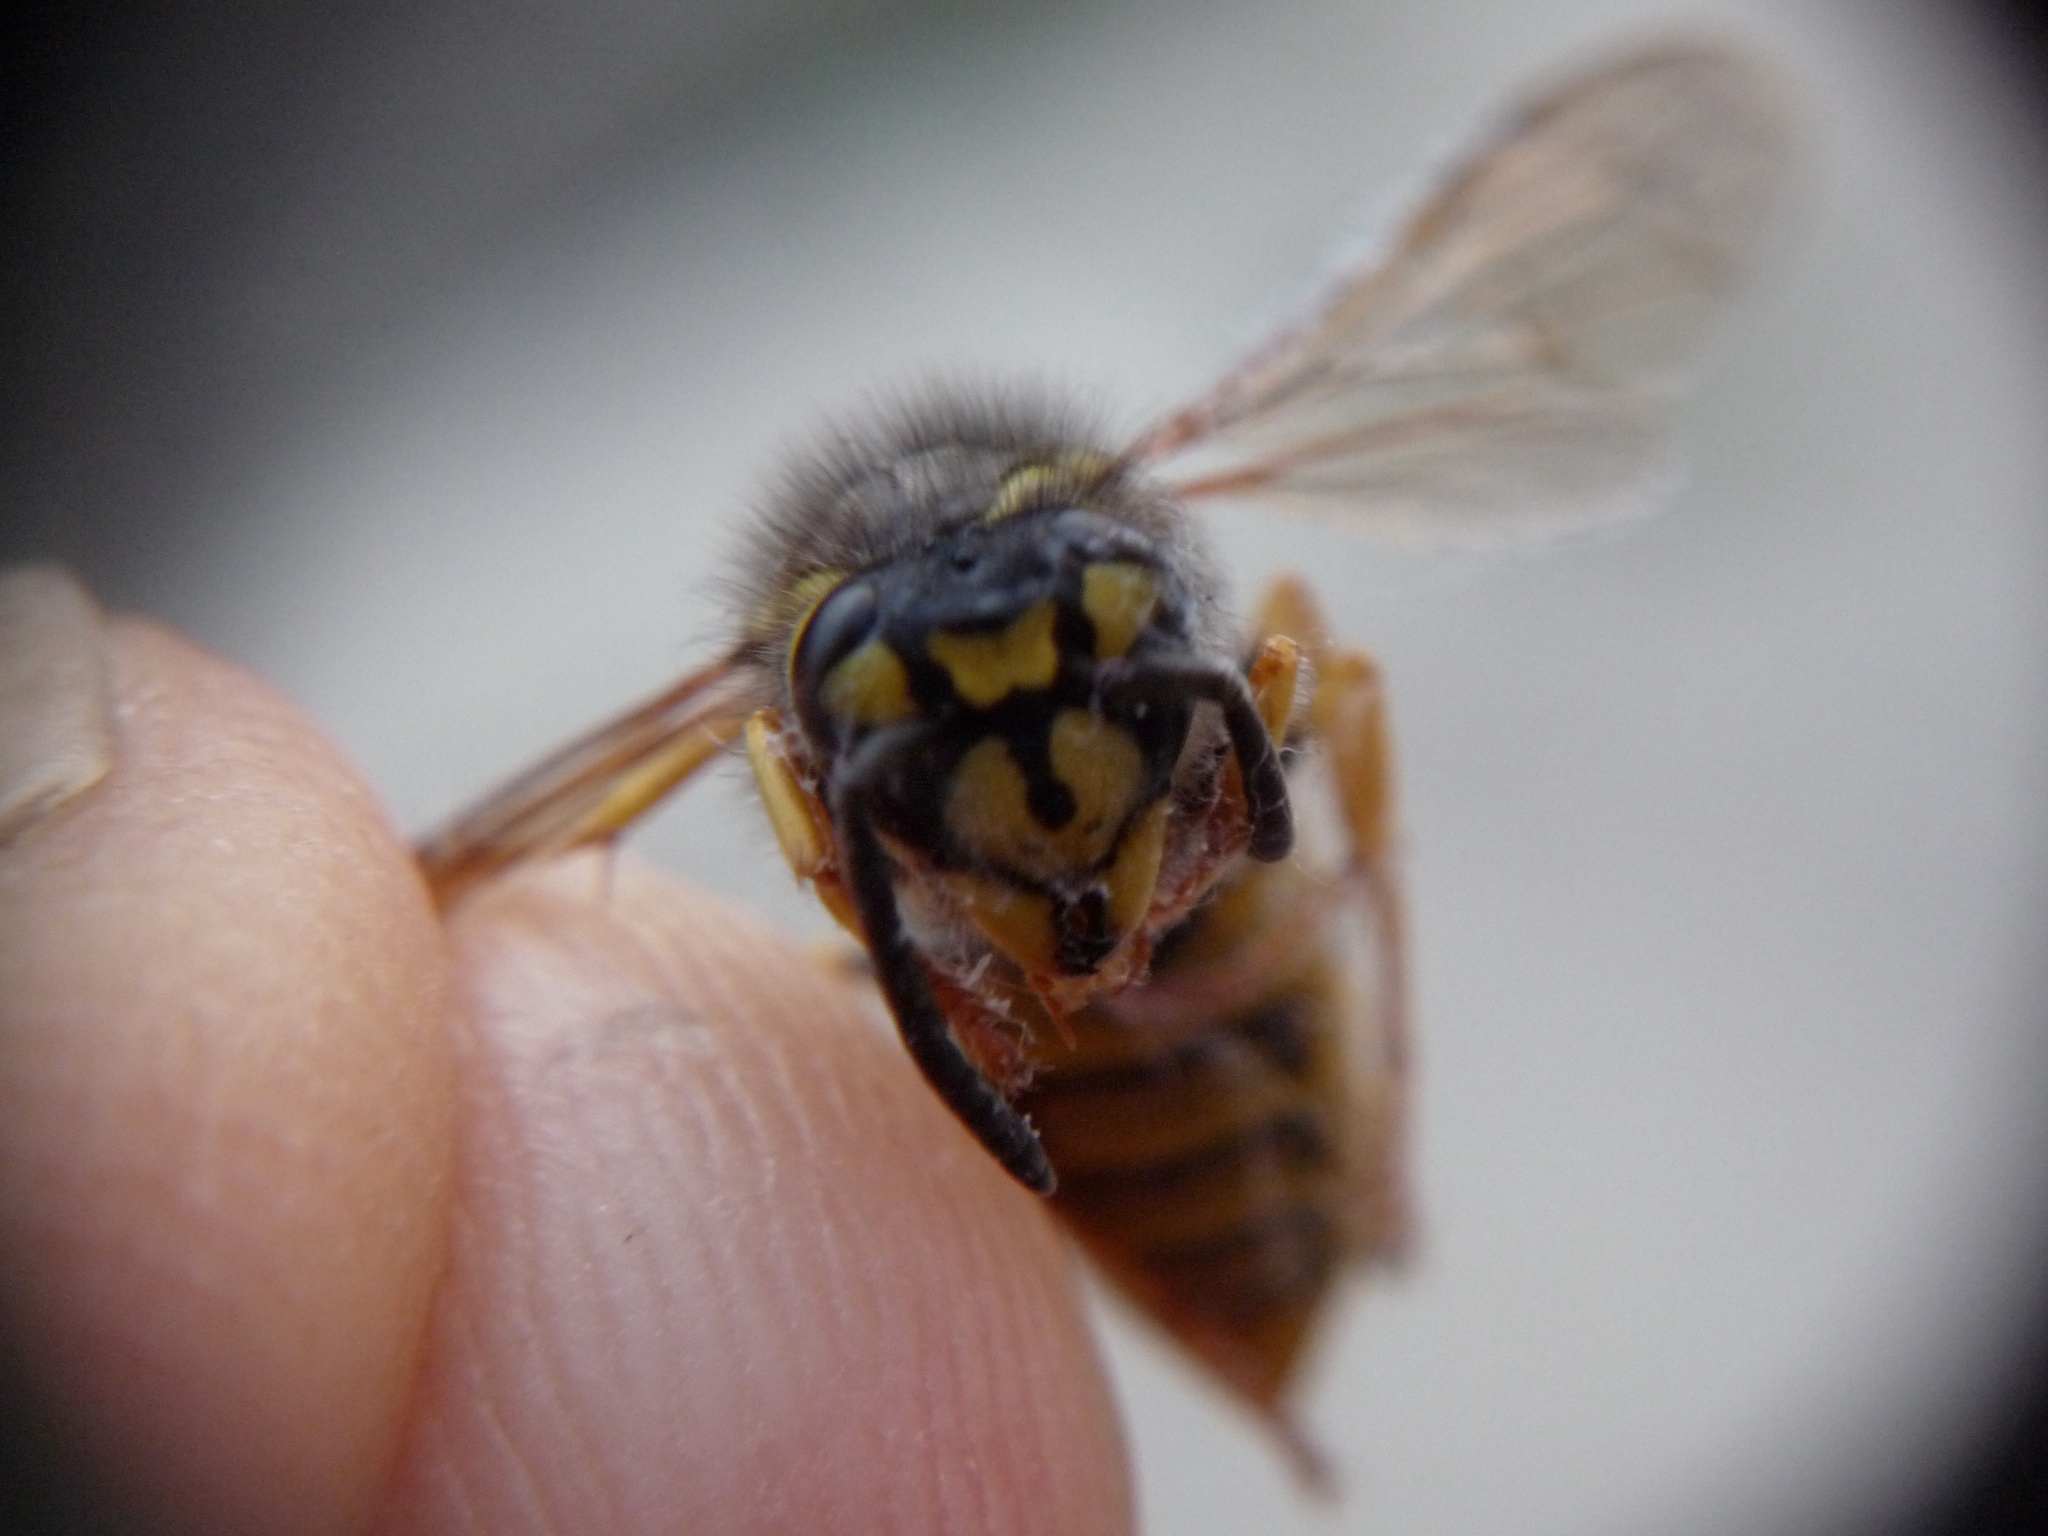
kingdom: Animalia
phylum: Arthropoda
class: Insecta
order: Hymenoptera
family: Vespidae
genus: Vespula
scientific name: Vespula germanica
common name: German wasp
